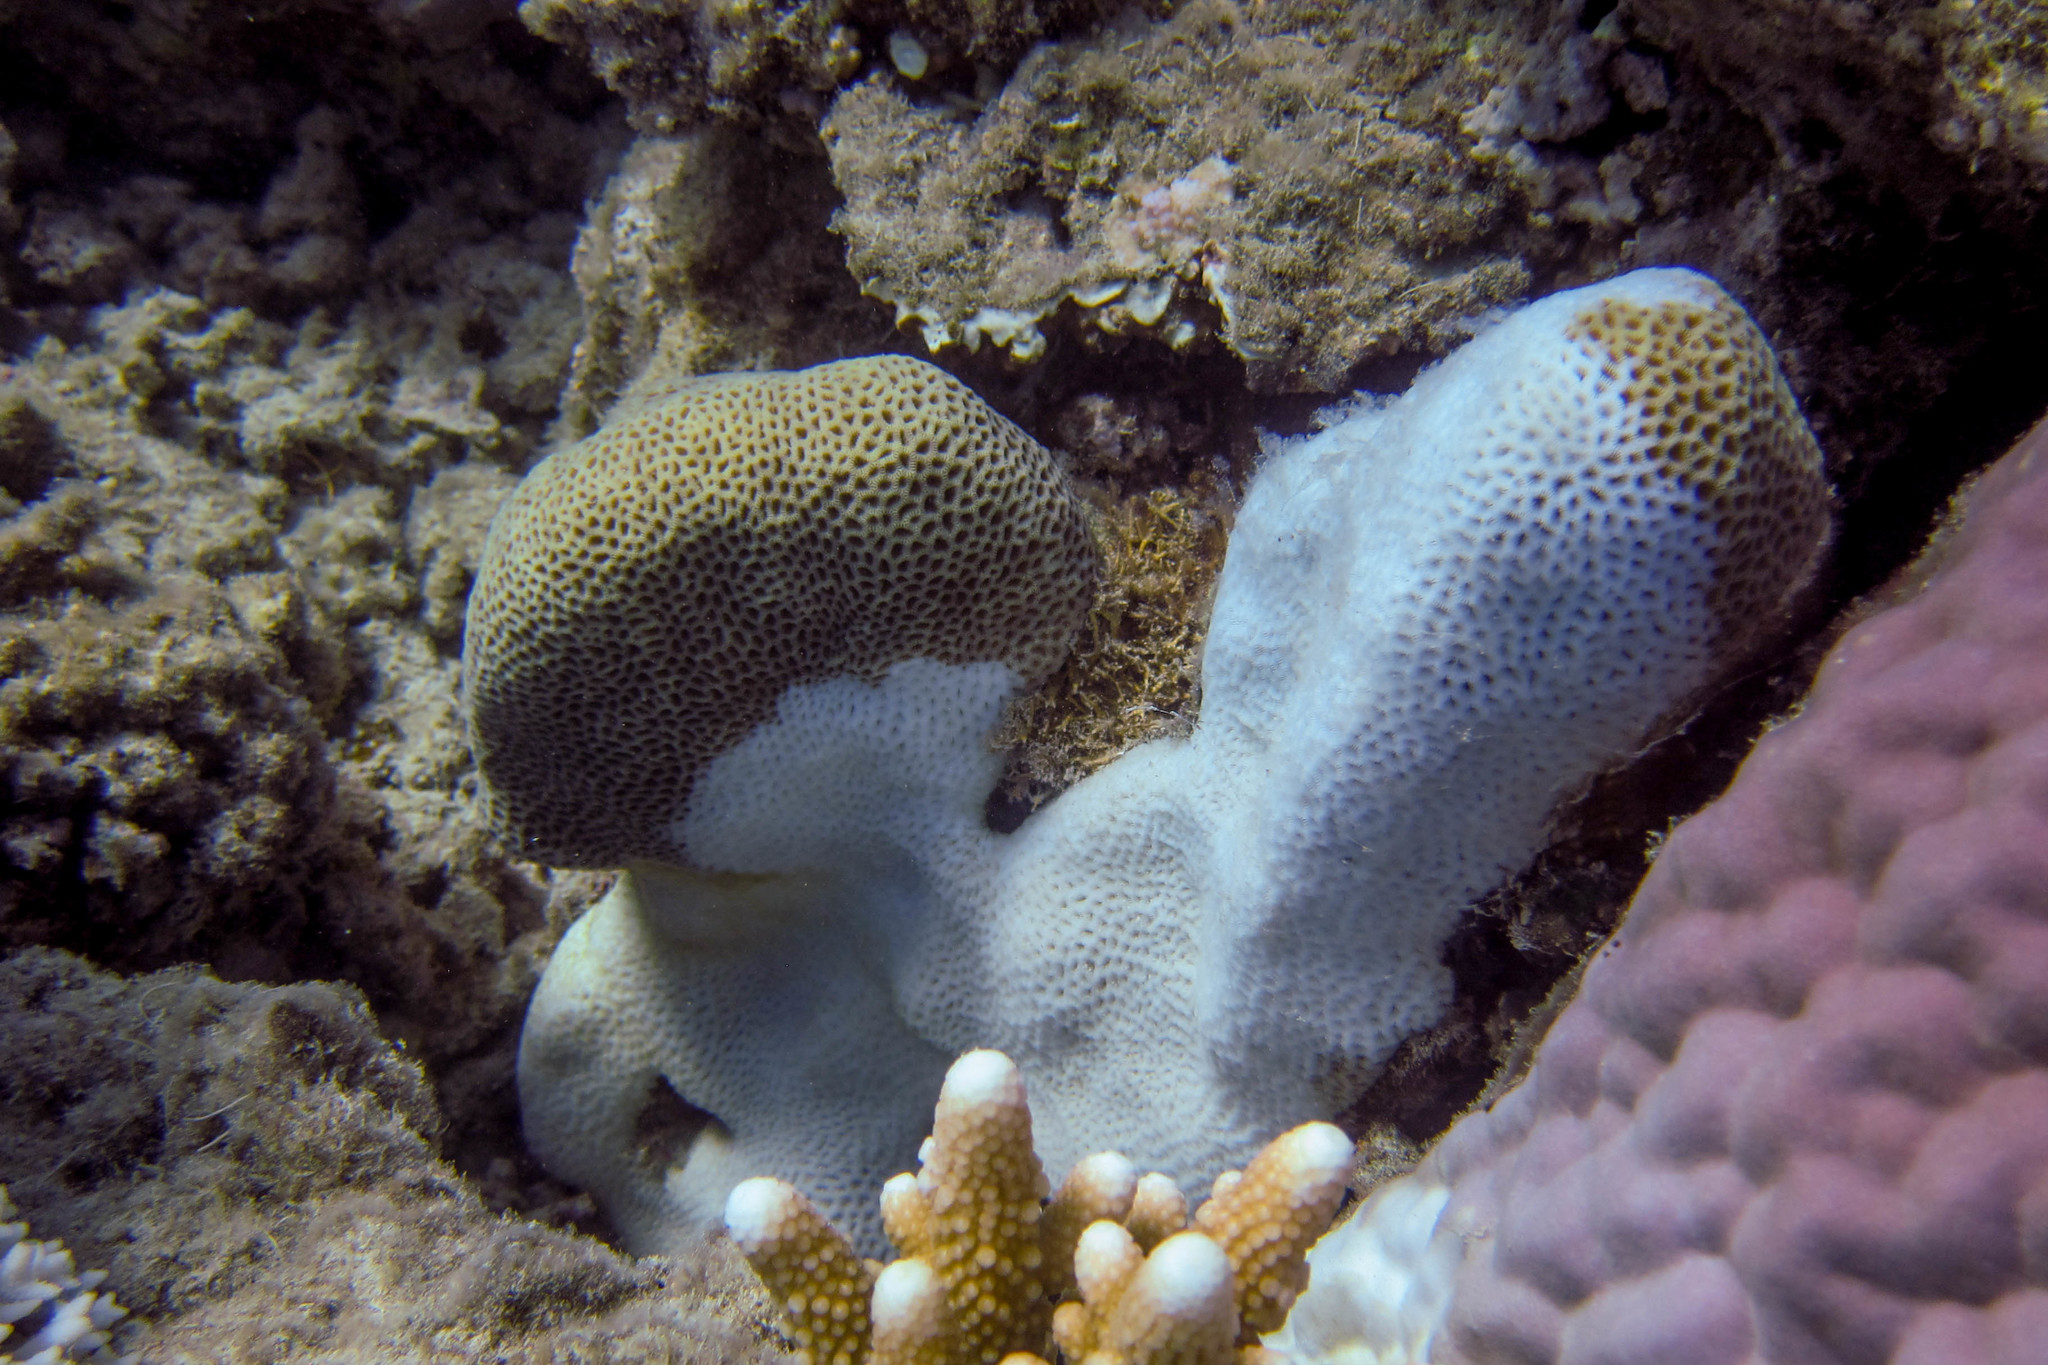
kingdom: Animalia
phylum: Cnidaria
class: Anthozoa
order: Scleractinia
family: Euphylliidae
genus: Coeloseris
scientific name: Coeloseris mayeri
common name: Tombstone coral
